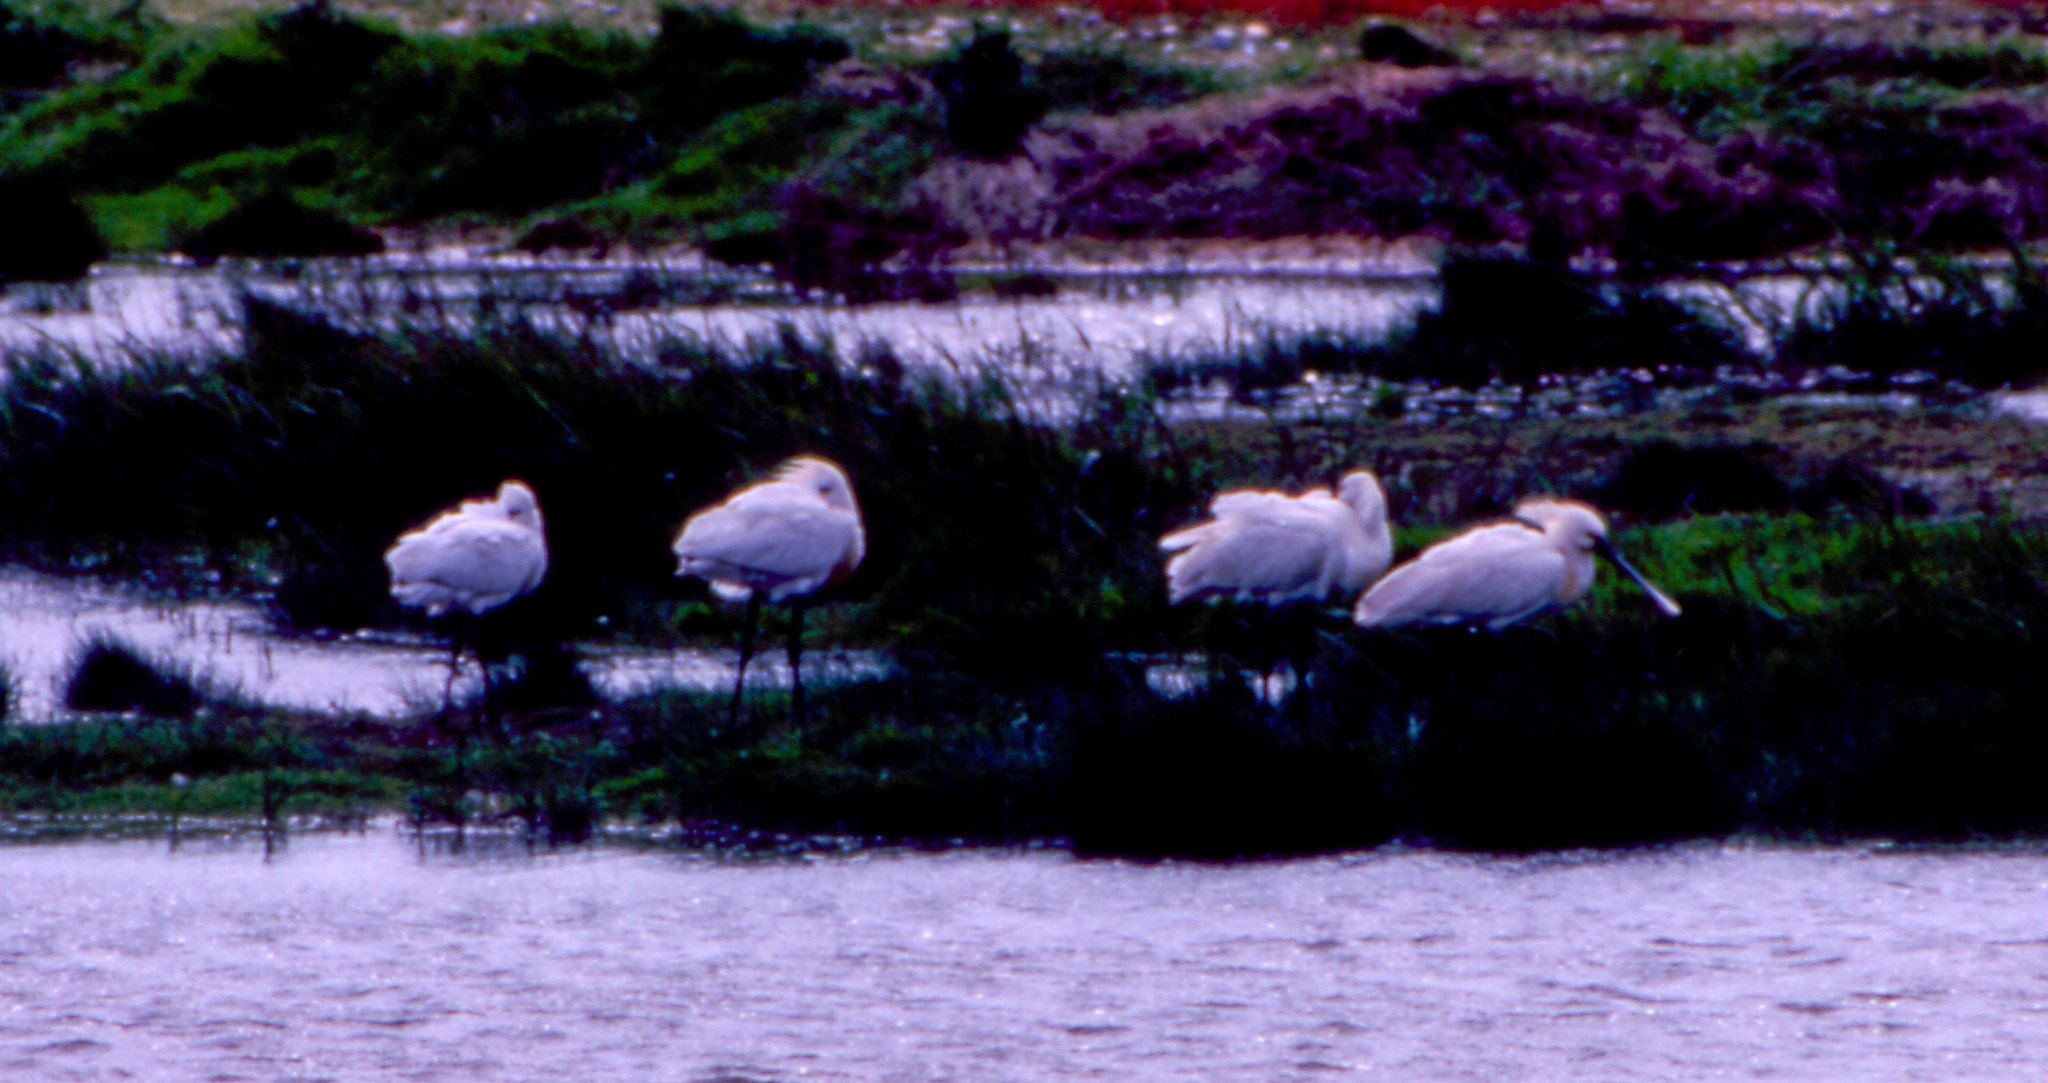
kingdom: Animalia
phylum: Chordata
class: Aves
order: Pelecaniformes
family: Threskiornithidae
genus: Platalea
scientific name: Platalea leucorodia
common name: Eurasian spoonbill
